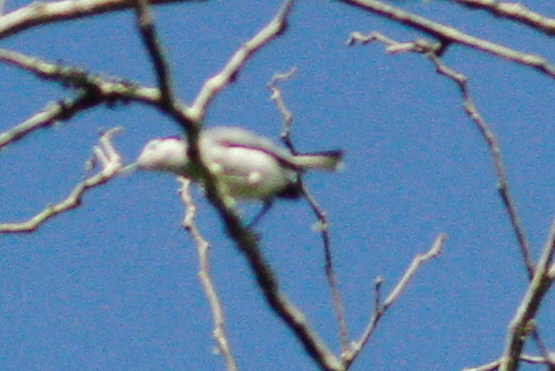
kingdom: Animalia
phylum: Chordata
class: Aves
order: Passeriformes
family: Polioptilidae
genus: Polioptila
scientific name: Polioptila plumbea
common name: Tropical gnatcatcher
